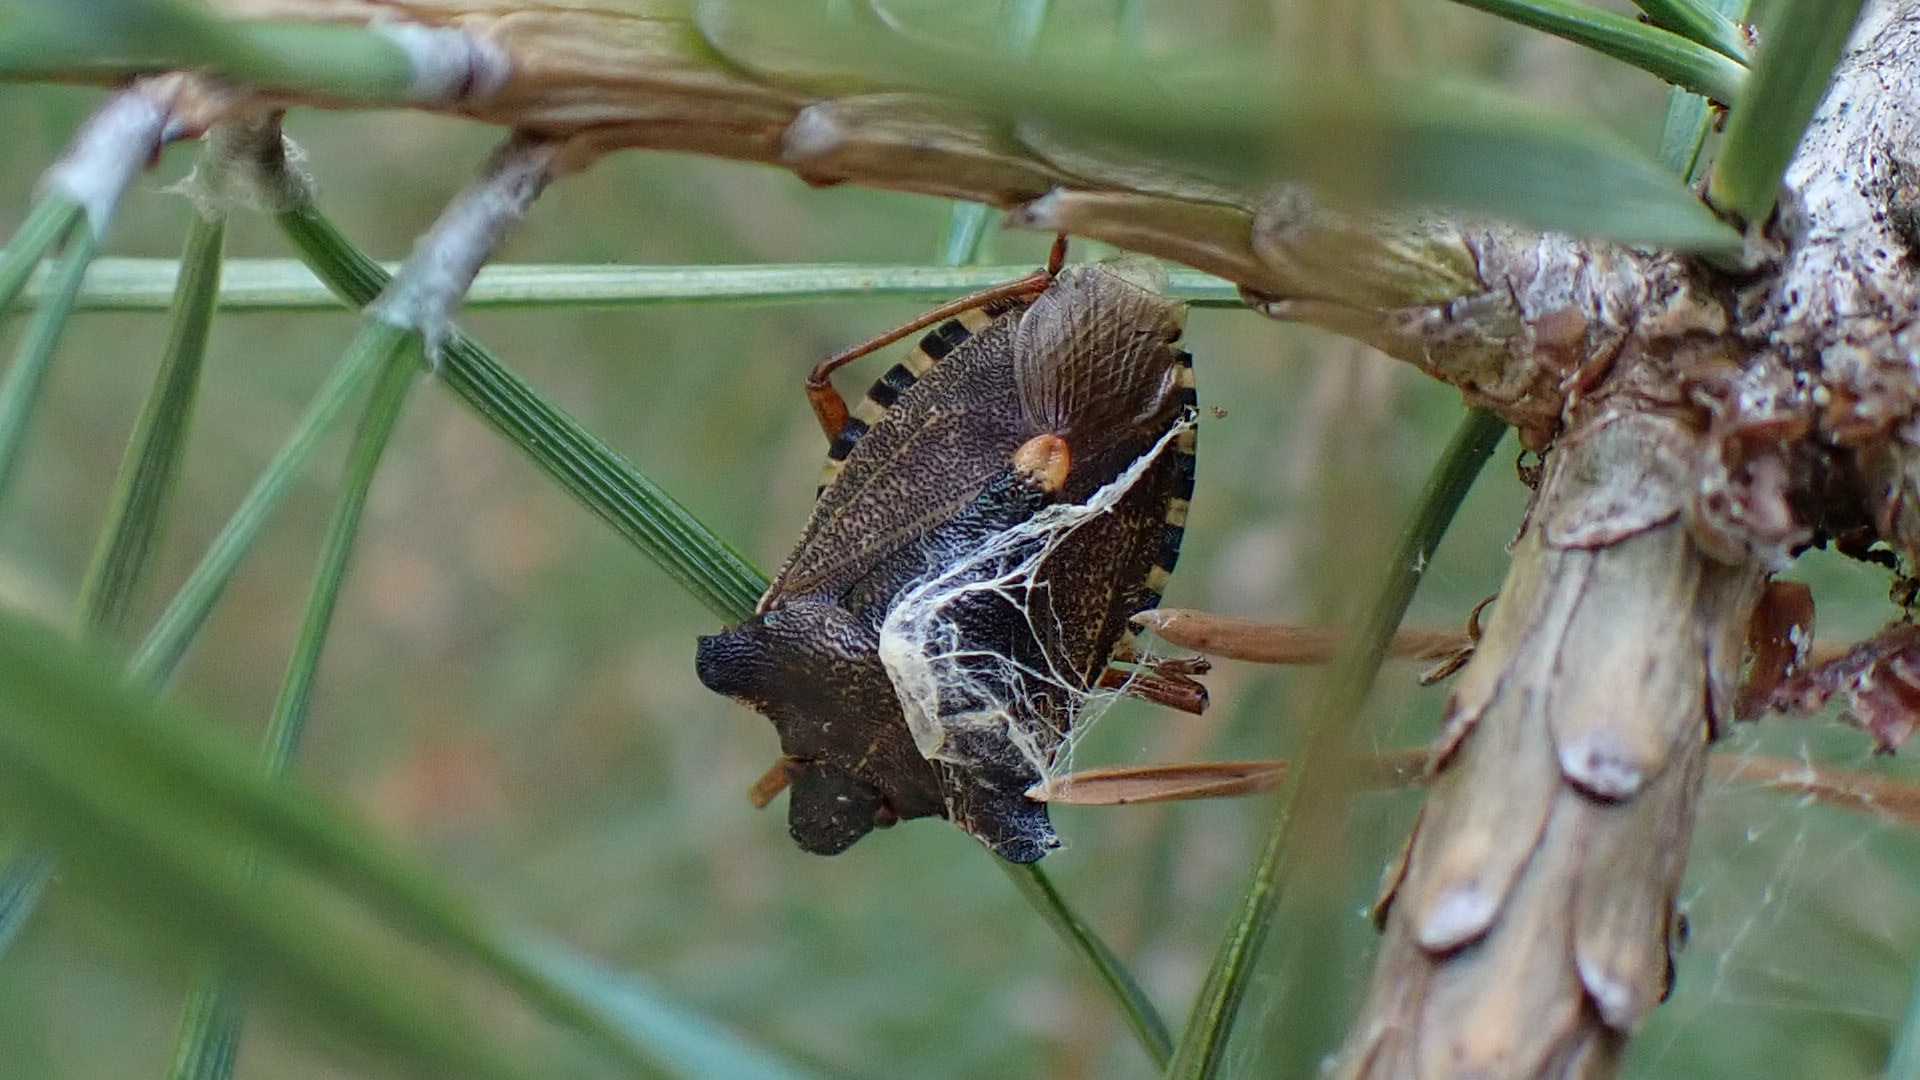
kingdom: Animalia
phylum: Arthropoda
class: Insecta
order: Hemiptera
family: Pentatomidae
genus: Pentatoma
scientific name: Pentatoma rufipes
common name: Forest bug
